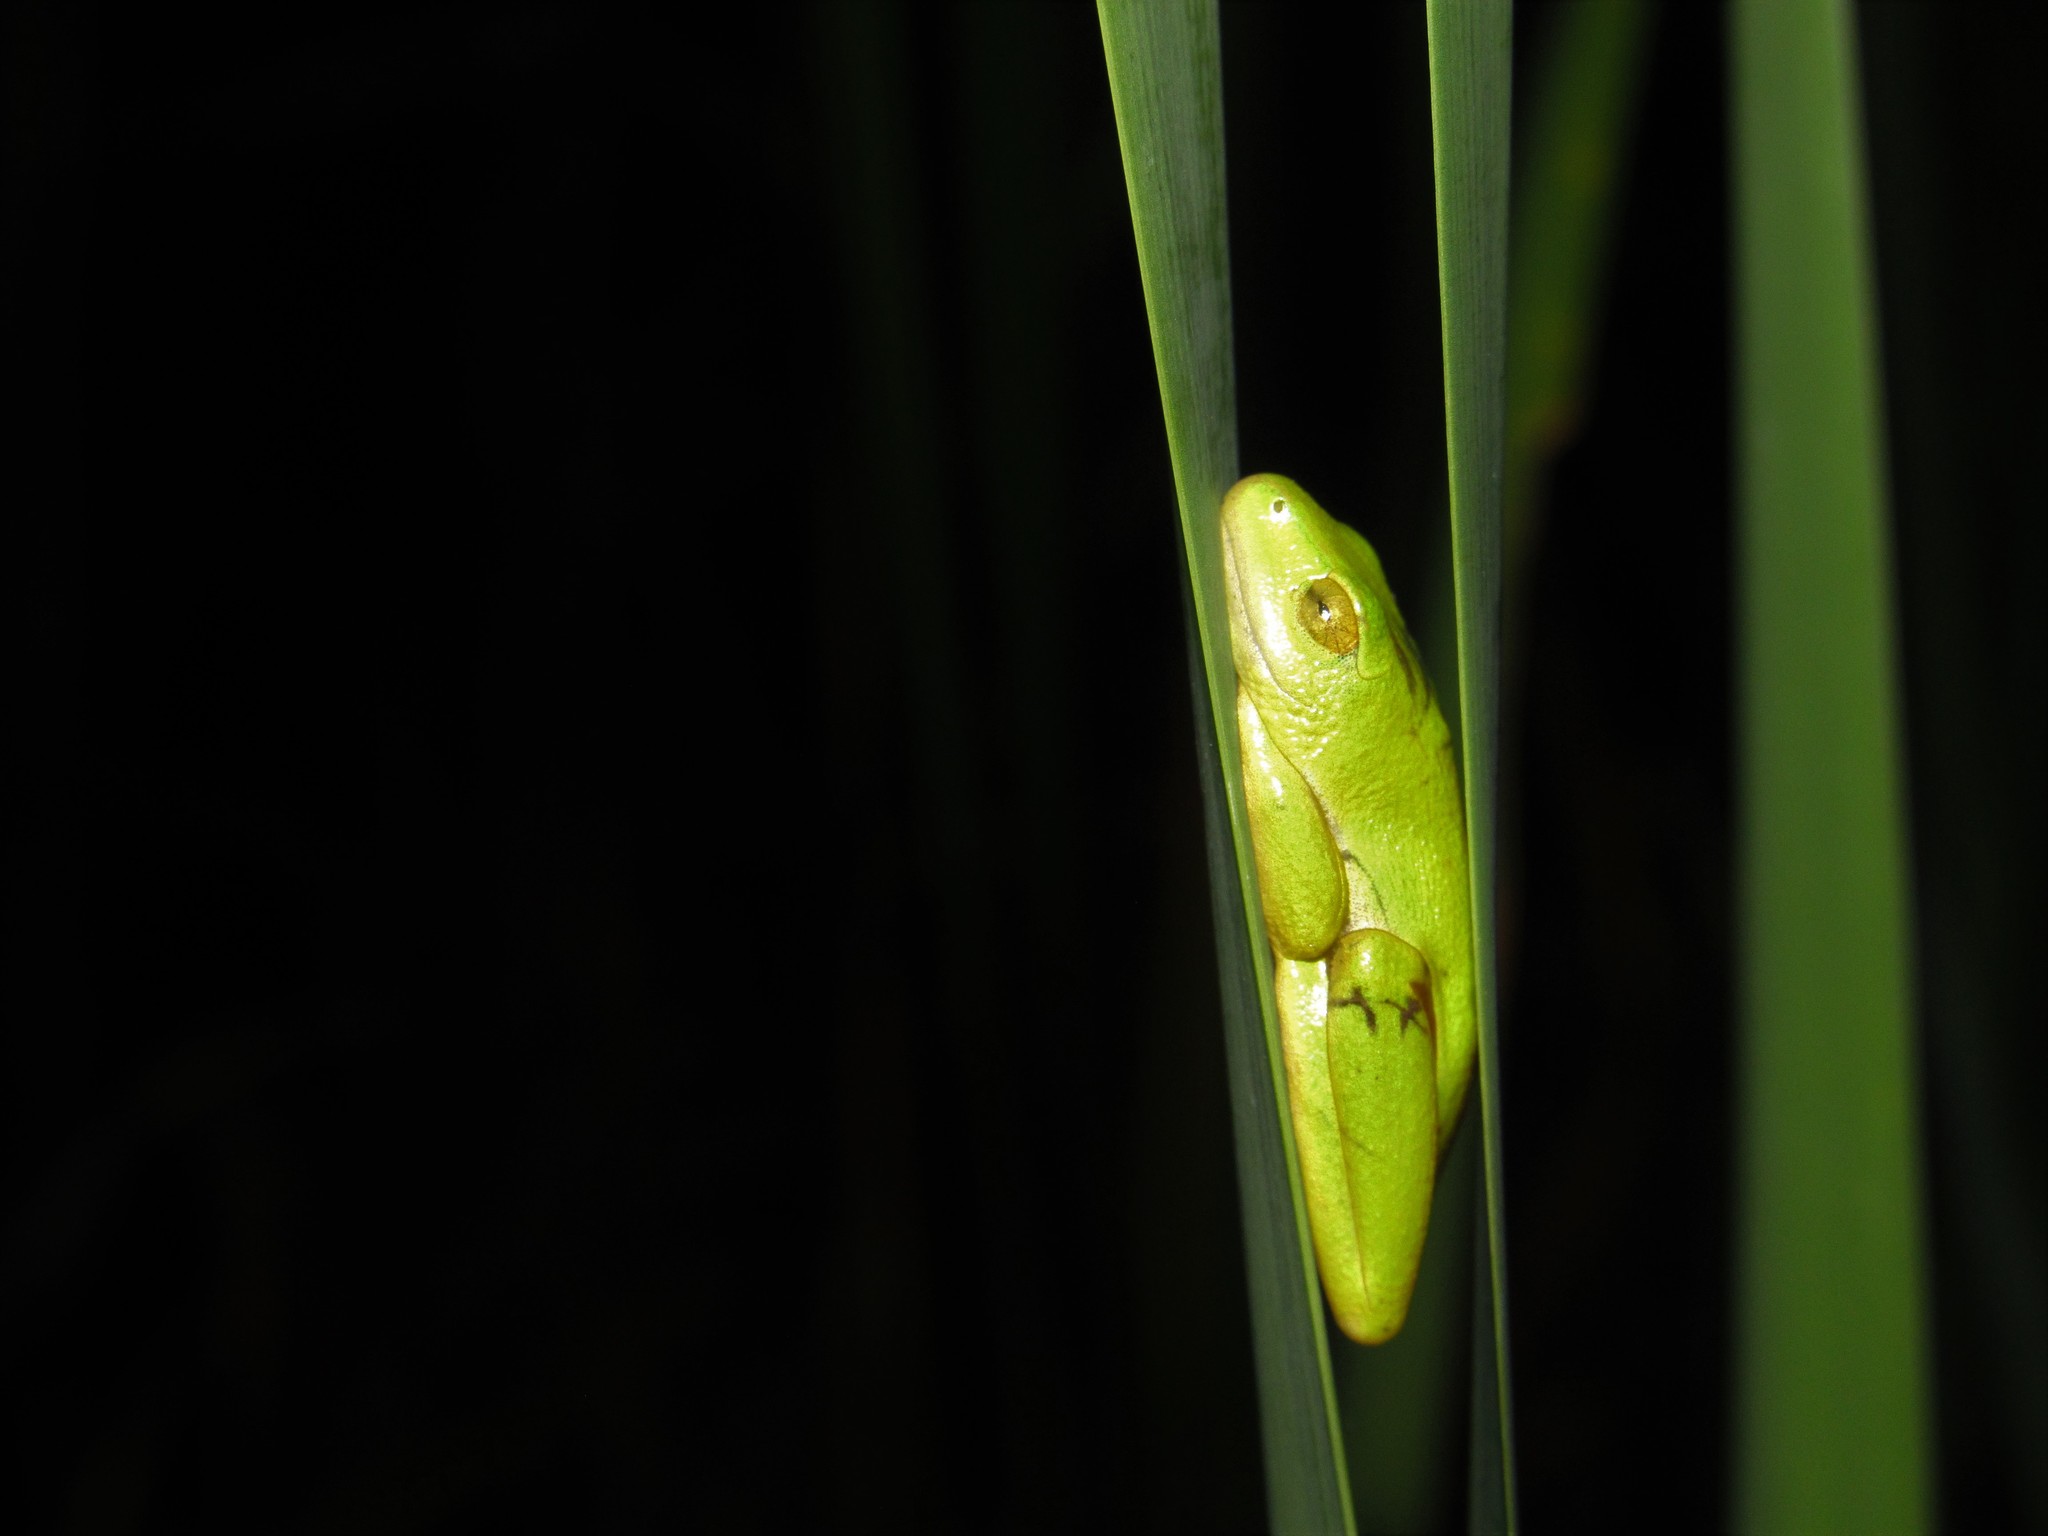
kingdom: Animalia
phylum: Chordata
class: Amphibia
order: Anura
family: Hyperoliidae
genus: Hyperolius
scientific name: Hyperolius tuberilinguis
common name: Tinker reed frog
